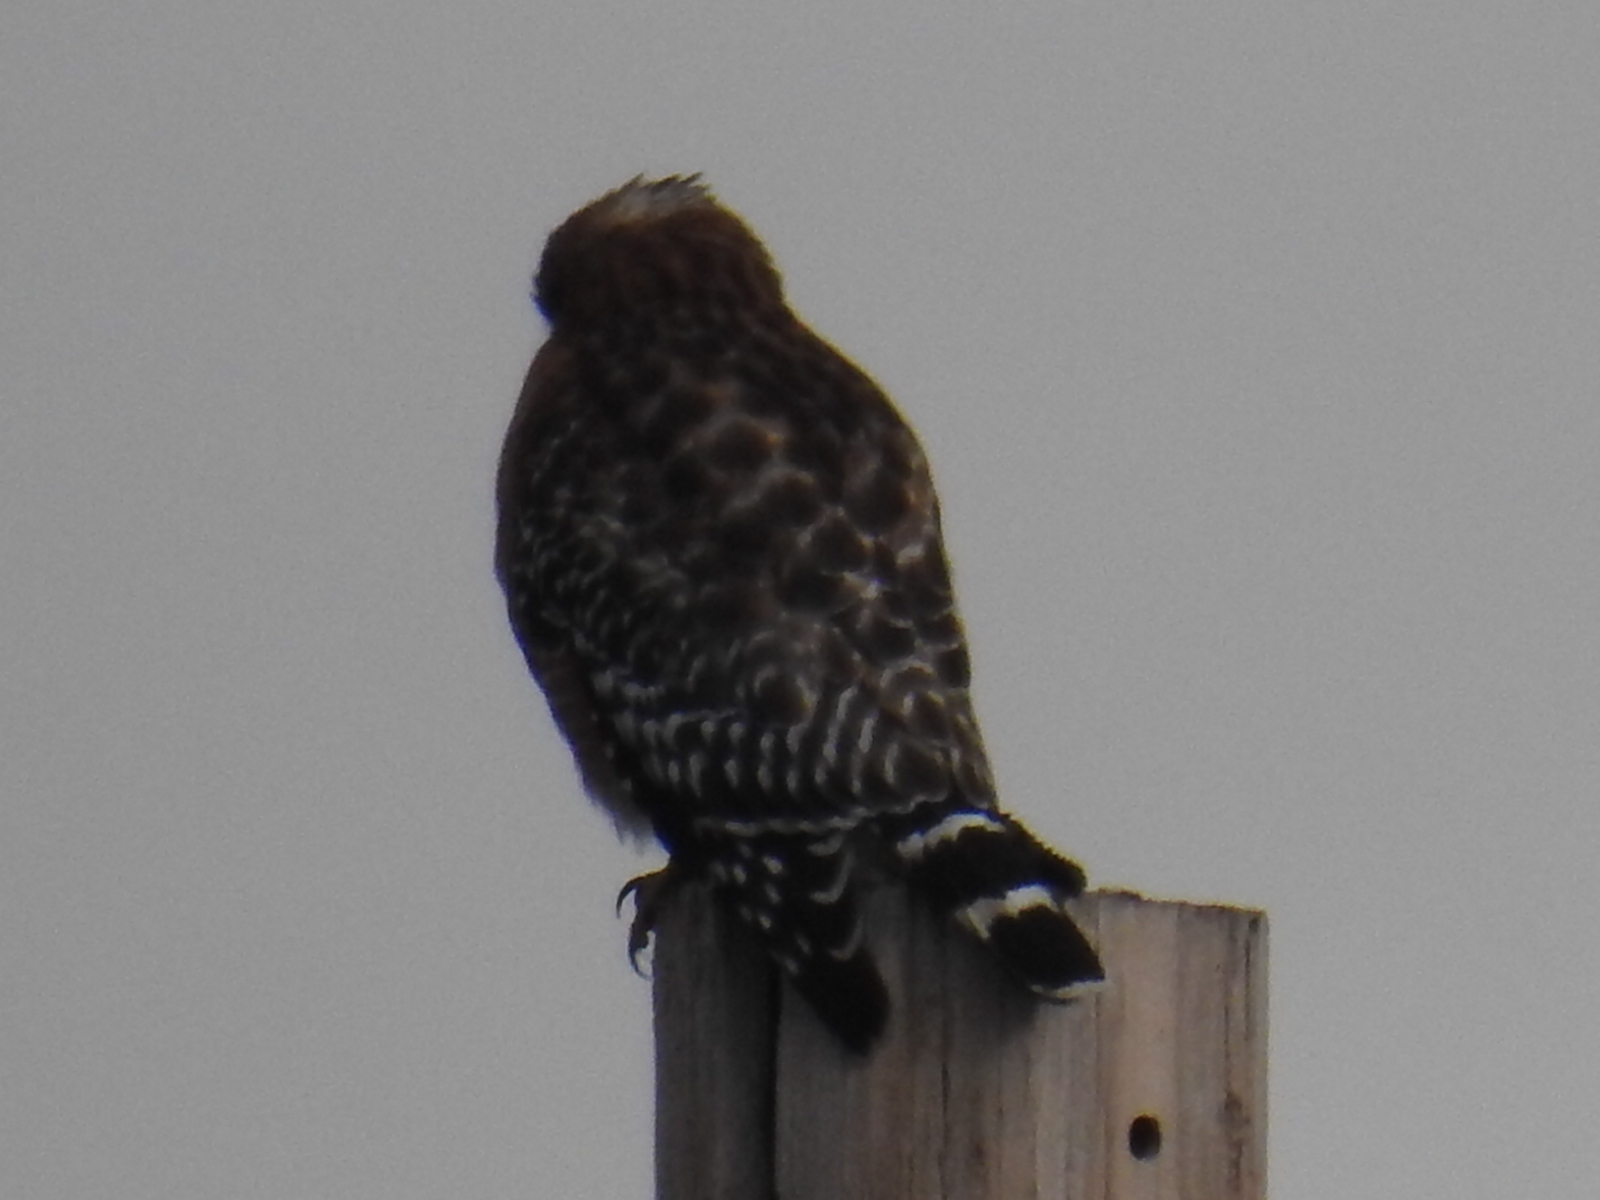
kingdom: Animalia
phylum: Chordata
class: Aves
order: Accipitriformes
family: Accipitridae
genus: Buteo
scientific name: Buteo lineatus
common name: Red-shouldered hawk
